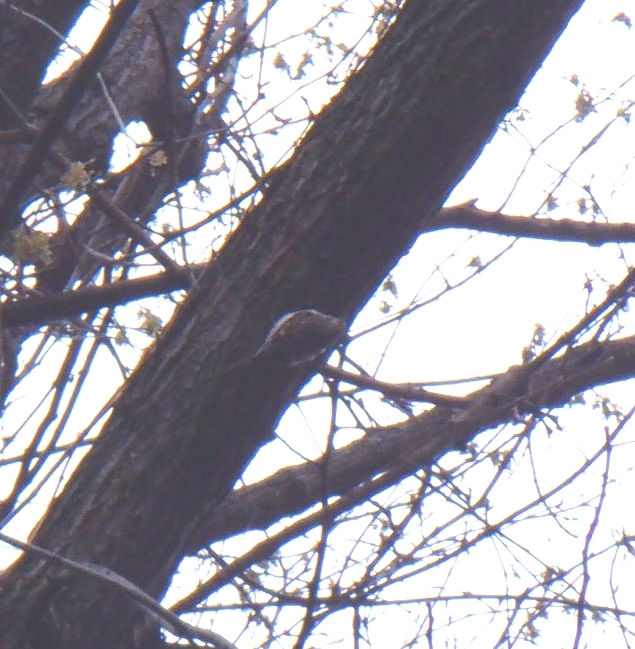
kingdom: Animalia
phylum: Chordata
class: Aves
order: Passeriformes
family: Certhiidae
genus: Certhia
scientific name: Certhia americana
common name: Brown creeper
